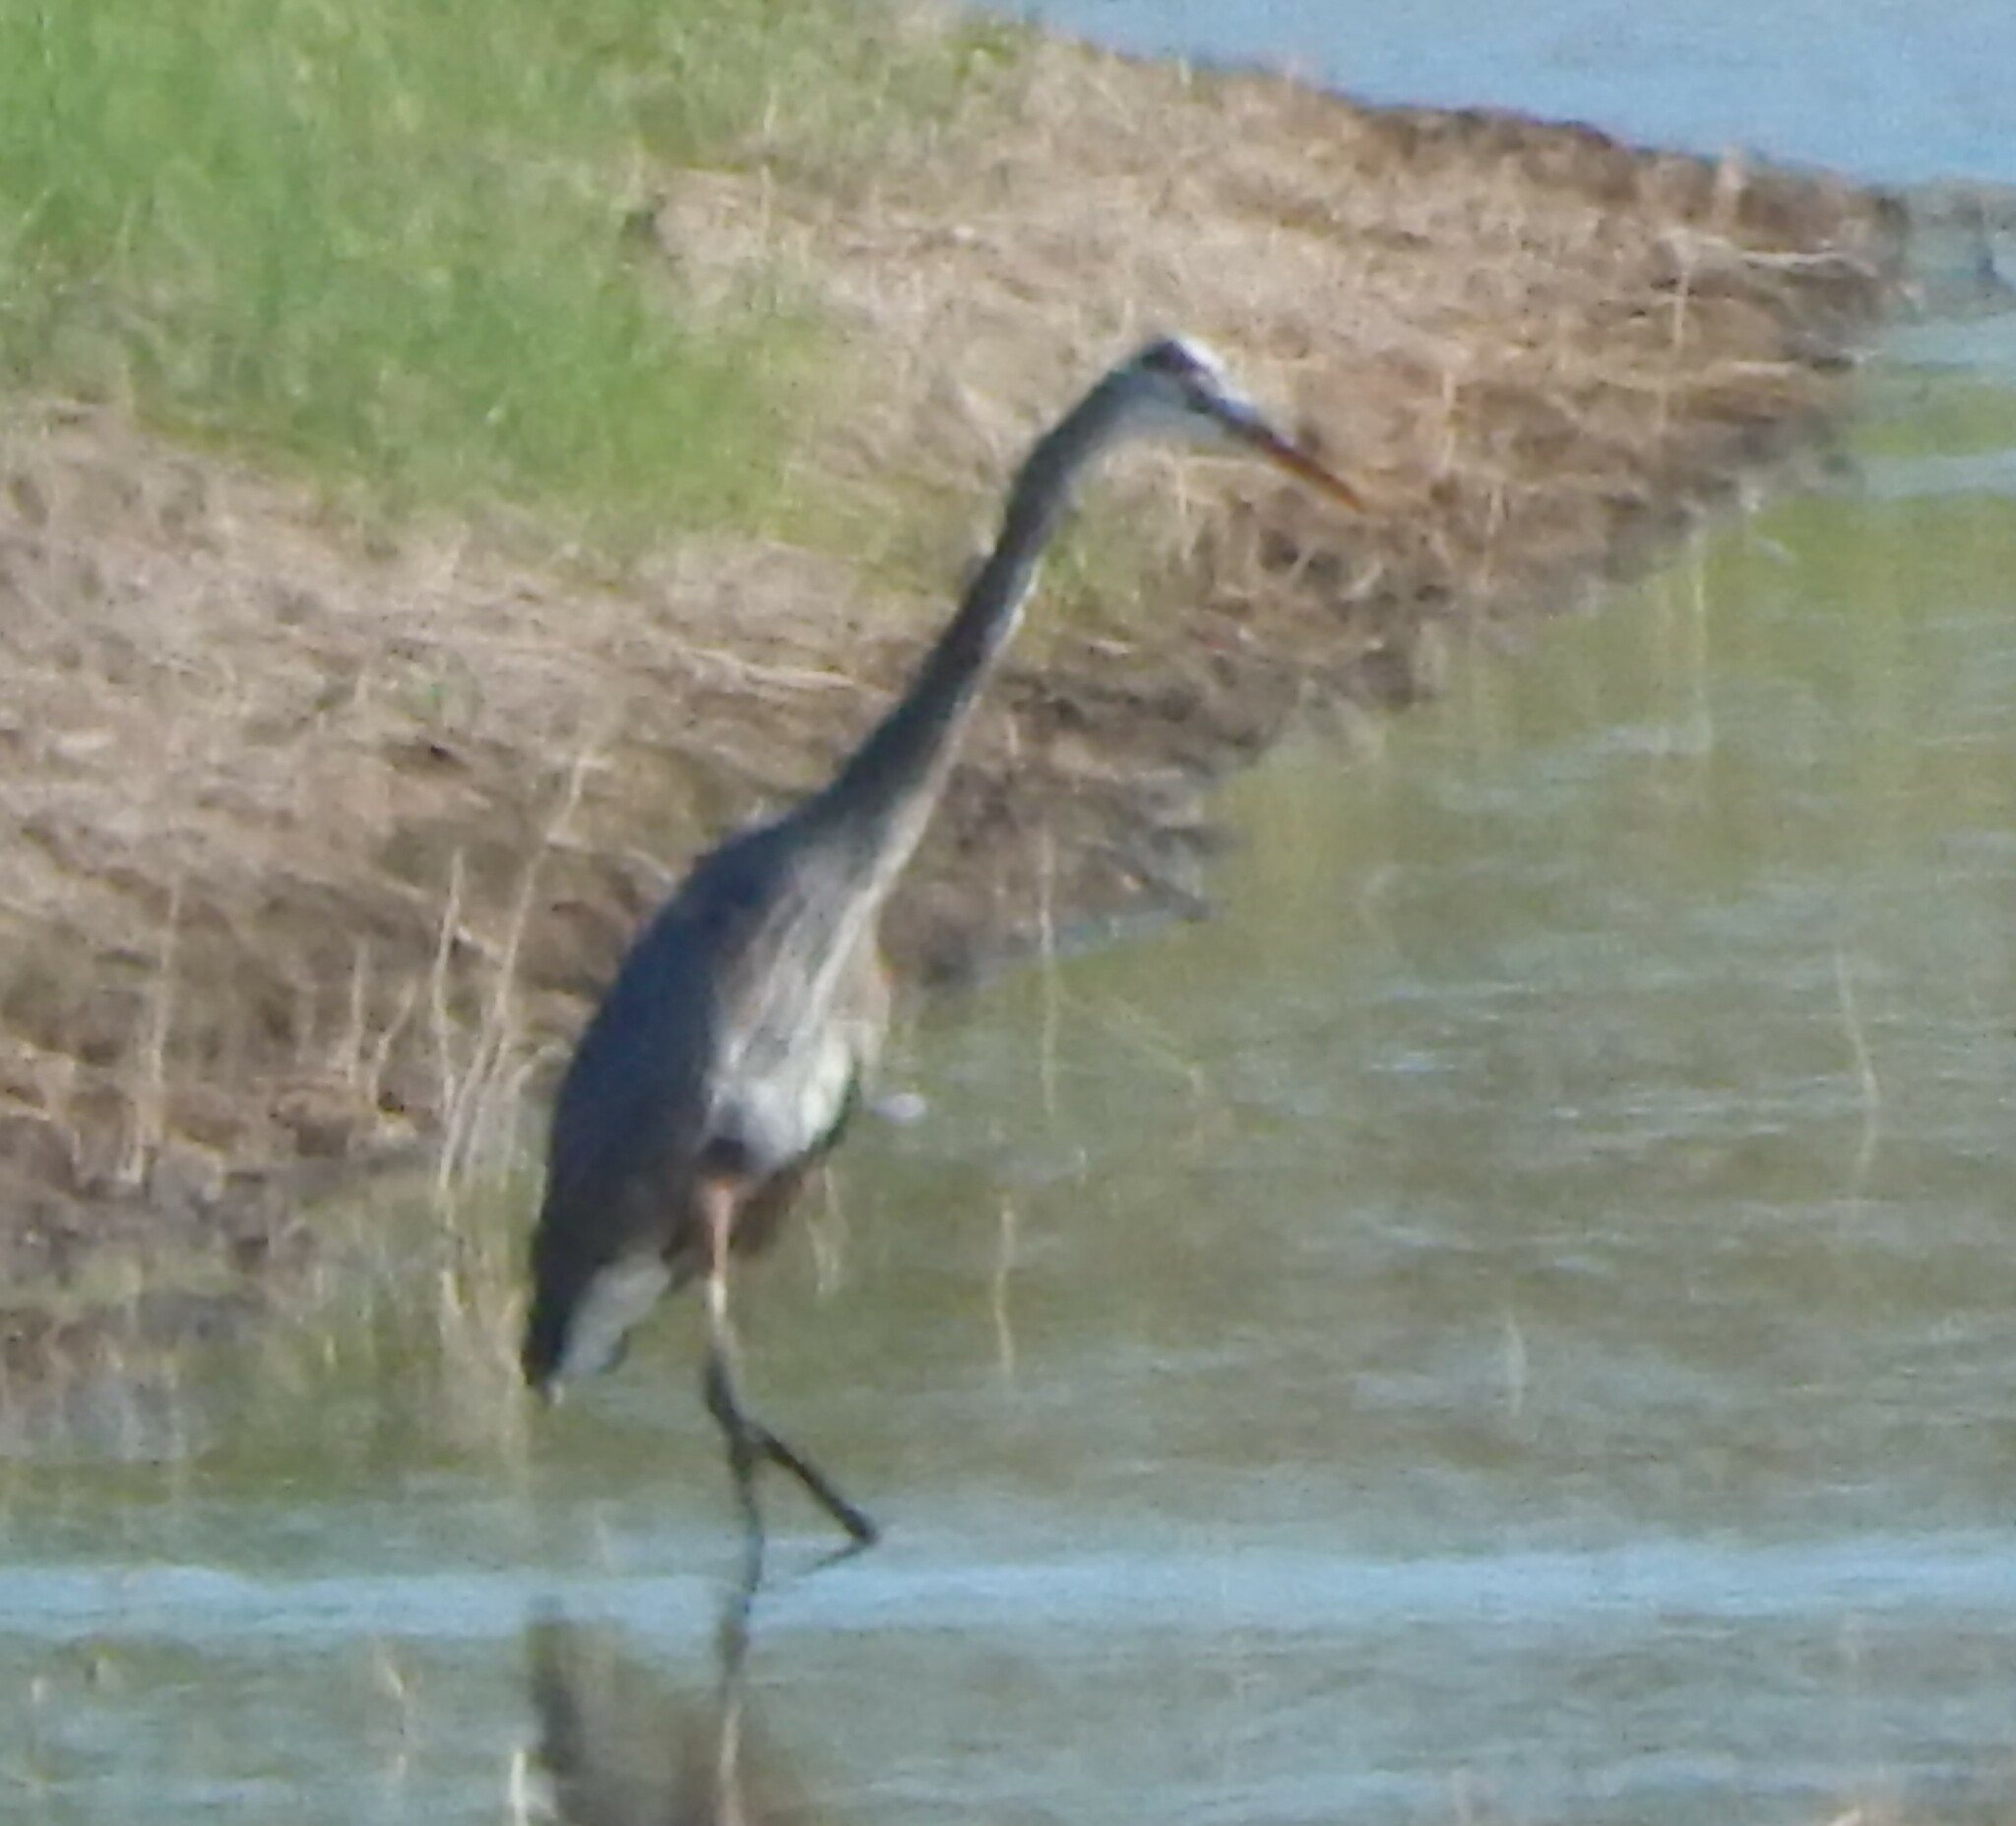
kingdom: Animalia
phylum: Chordata
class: Aves
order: Pelecaniformes
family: Ardeidae
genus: Ardea
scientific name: Ardea herodias
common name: Great blue heron
